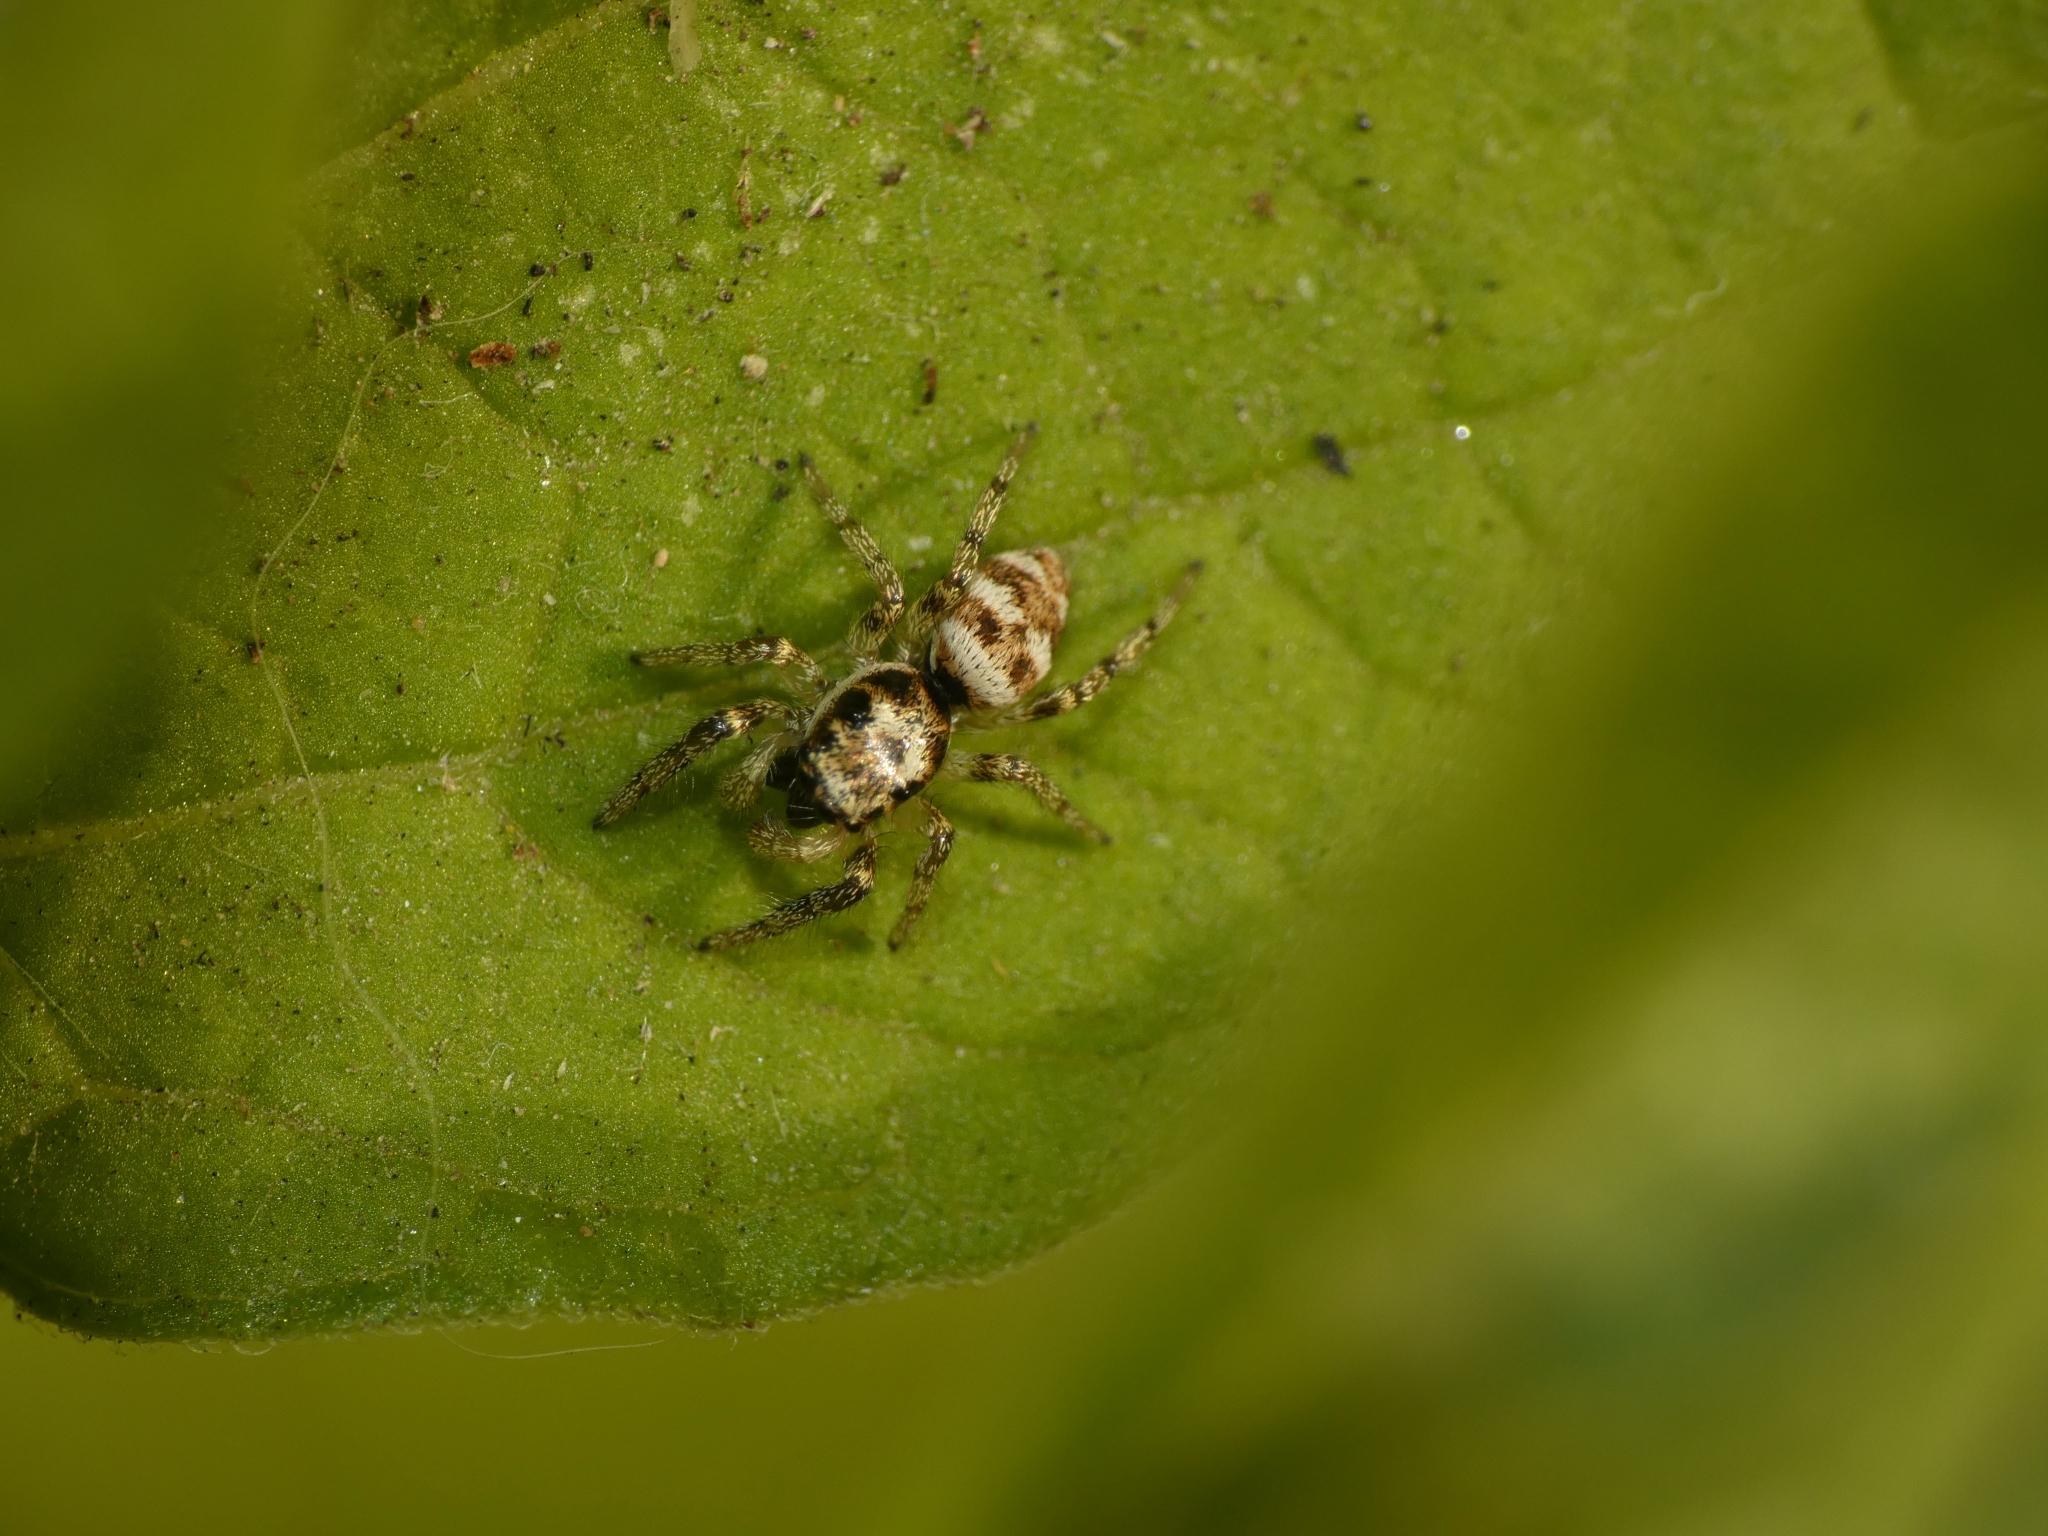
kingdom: Animalia
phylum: Arthropoda
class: Arachnida
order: Araneae
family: Salticidae
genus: Salticus
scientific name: Salticus scenicus
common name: Zebra jumper
